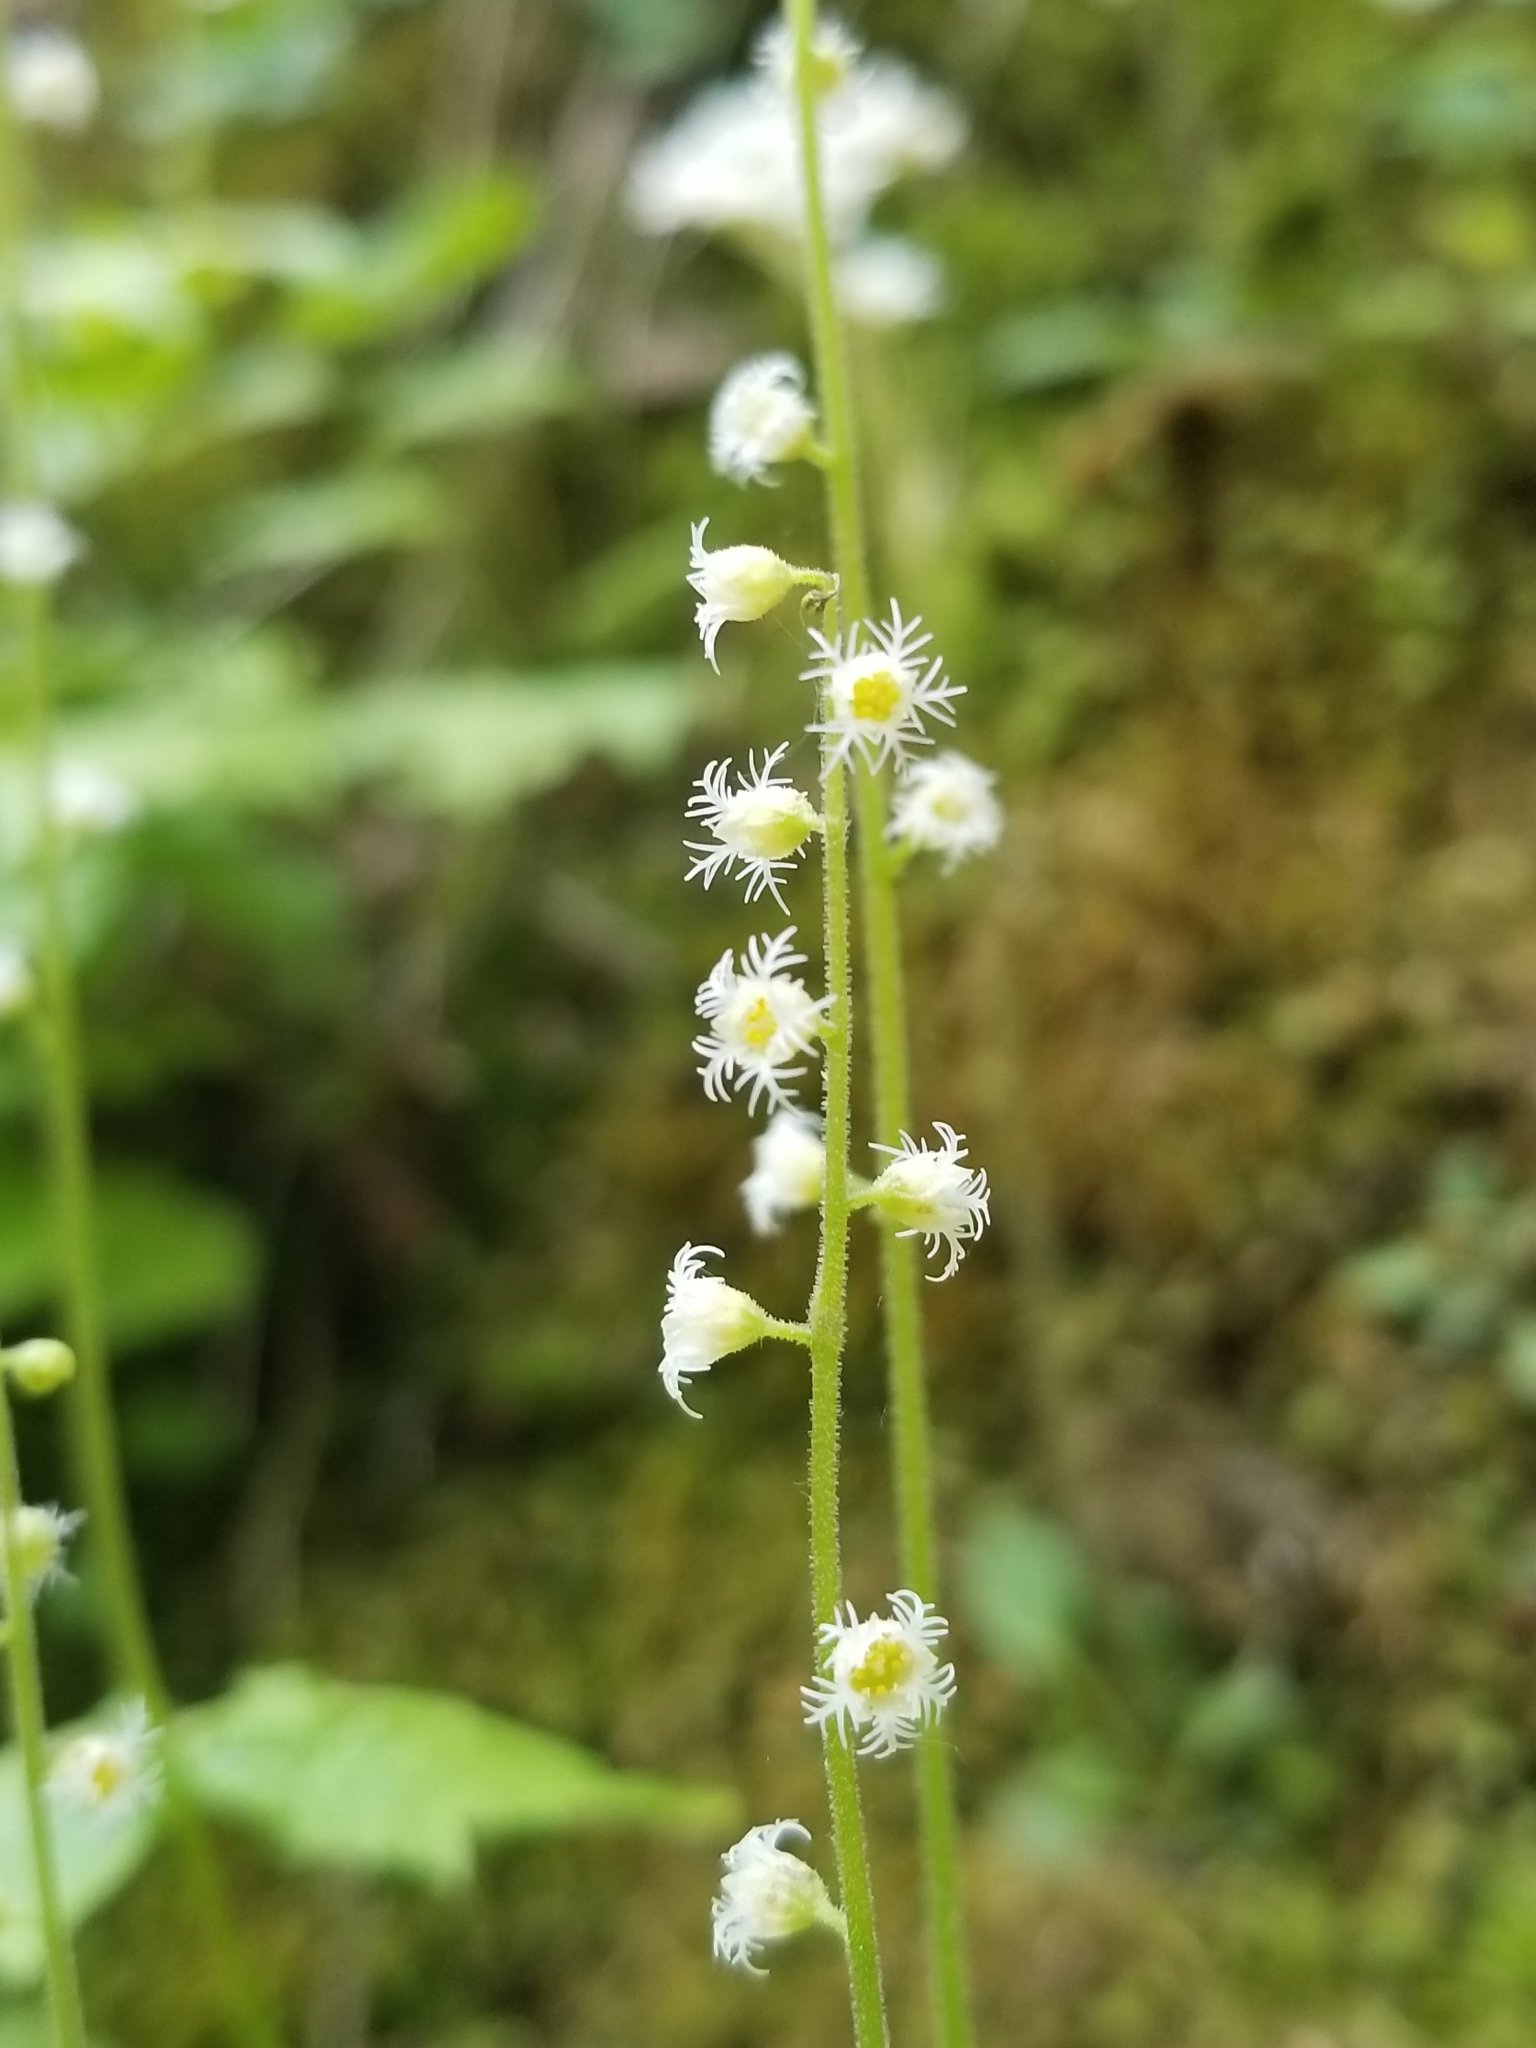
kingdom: Plantae
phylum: Tracheophyta
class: Magnoliopsida
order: Saxifragales
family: Saxifragaceae
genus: Mitella
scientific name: Mitella diphylla
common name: Coolwort
